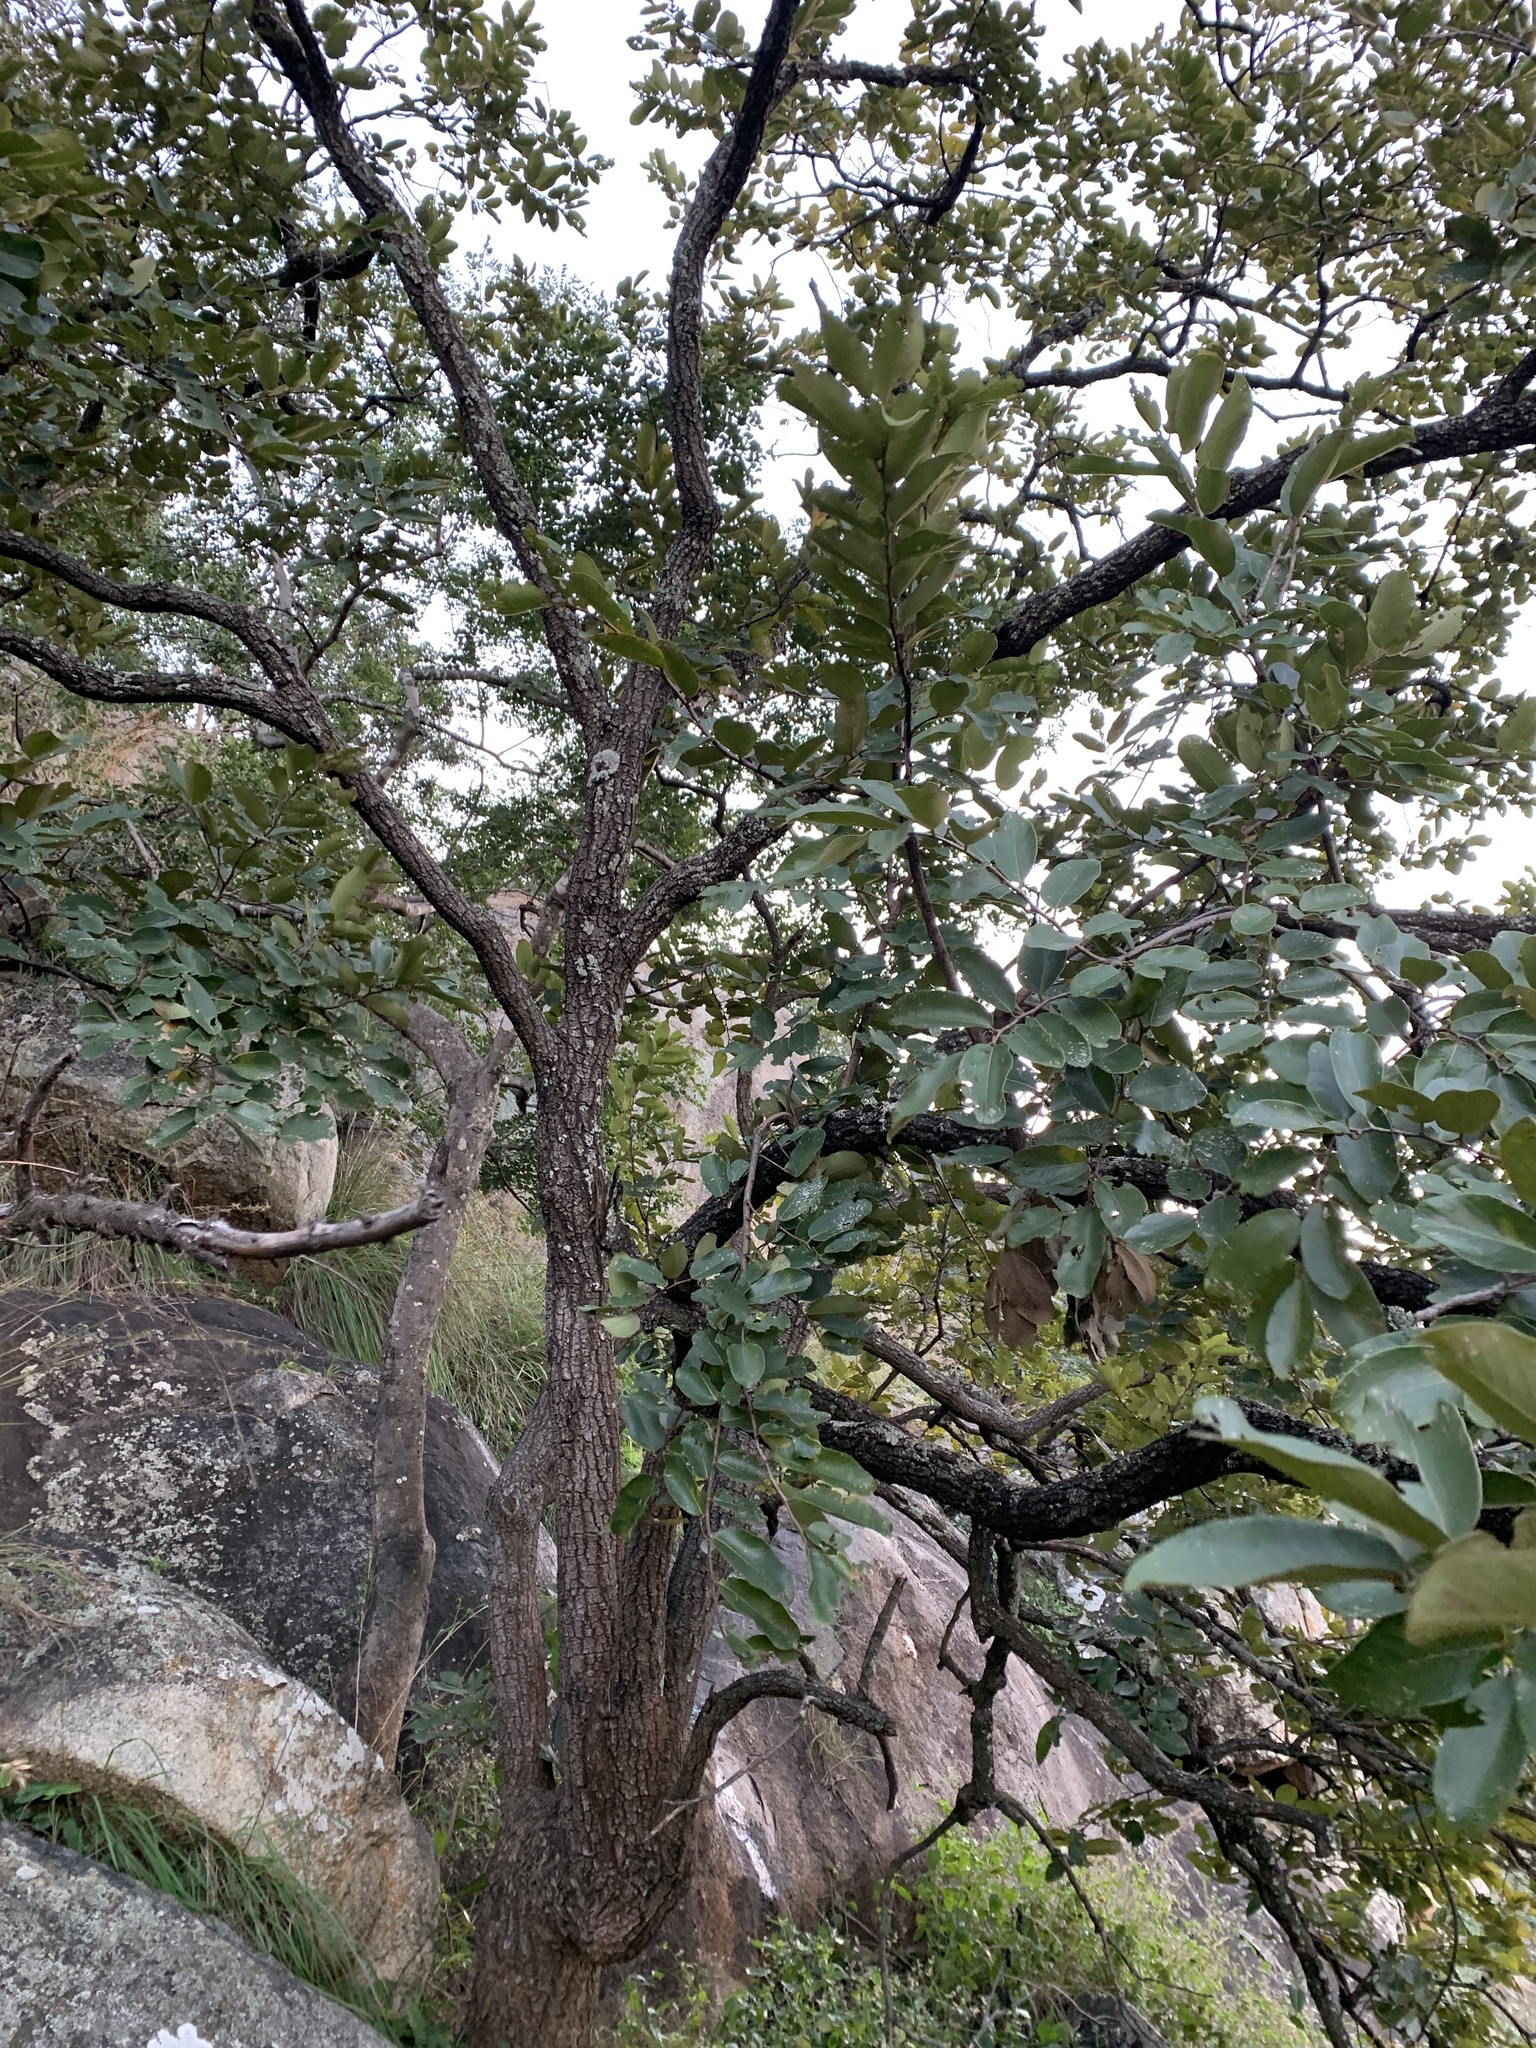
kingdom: Plantae
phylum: Tracheophyta
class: Magnoliopsida
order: Malpighiales
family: Phyllanthaceae
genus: Bridelia
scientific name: Bridelia retusa
